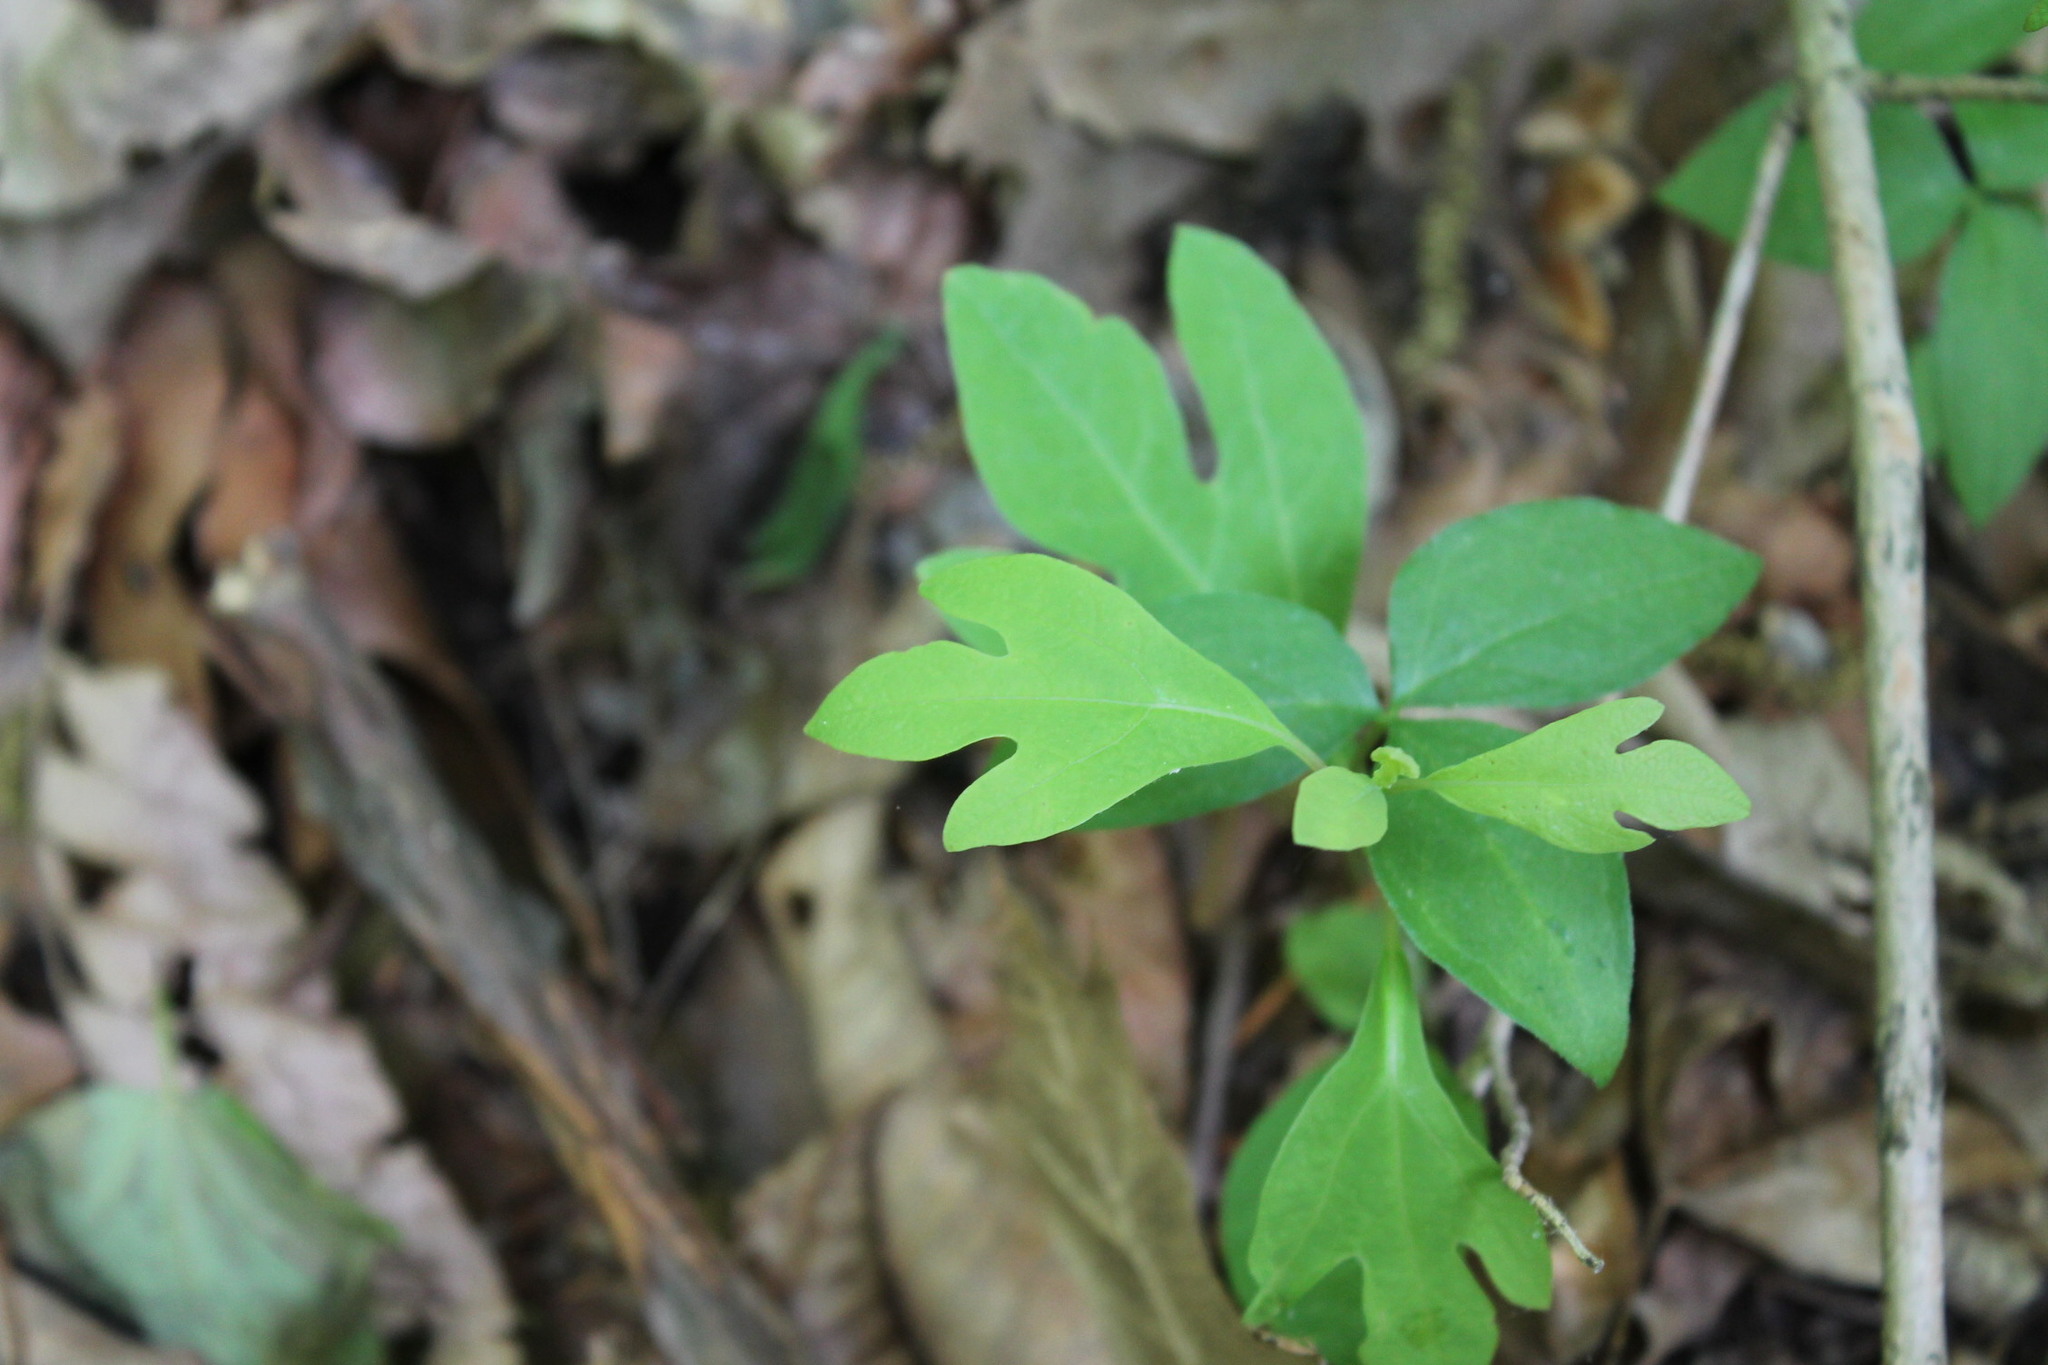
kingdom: Plantae
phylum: Tracheophyta
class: Magnoliopsida
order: Laurales
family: Lauraceae
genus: Sassafras
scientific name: Sassafras albidum
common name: Sassafras
